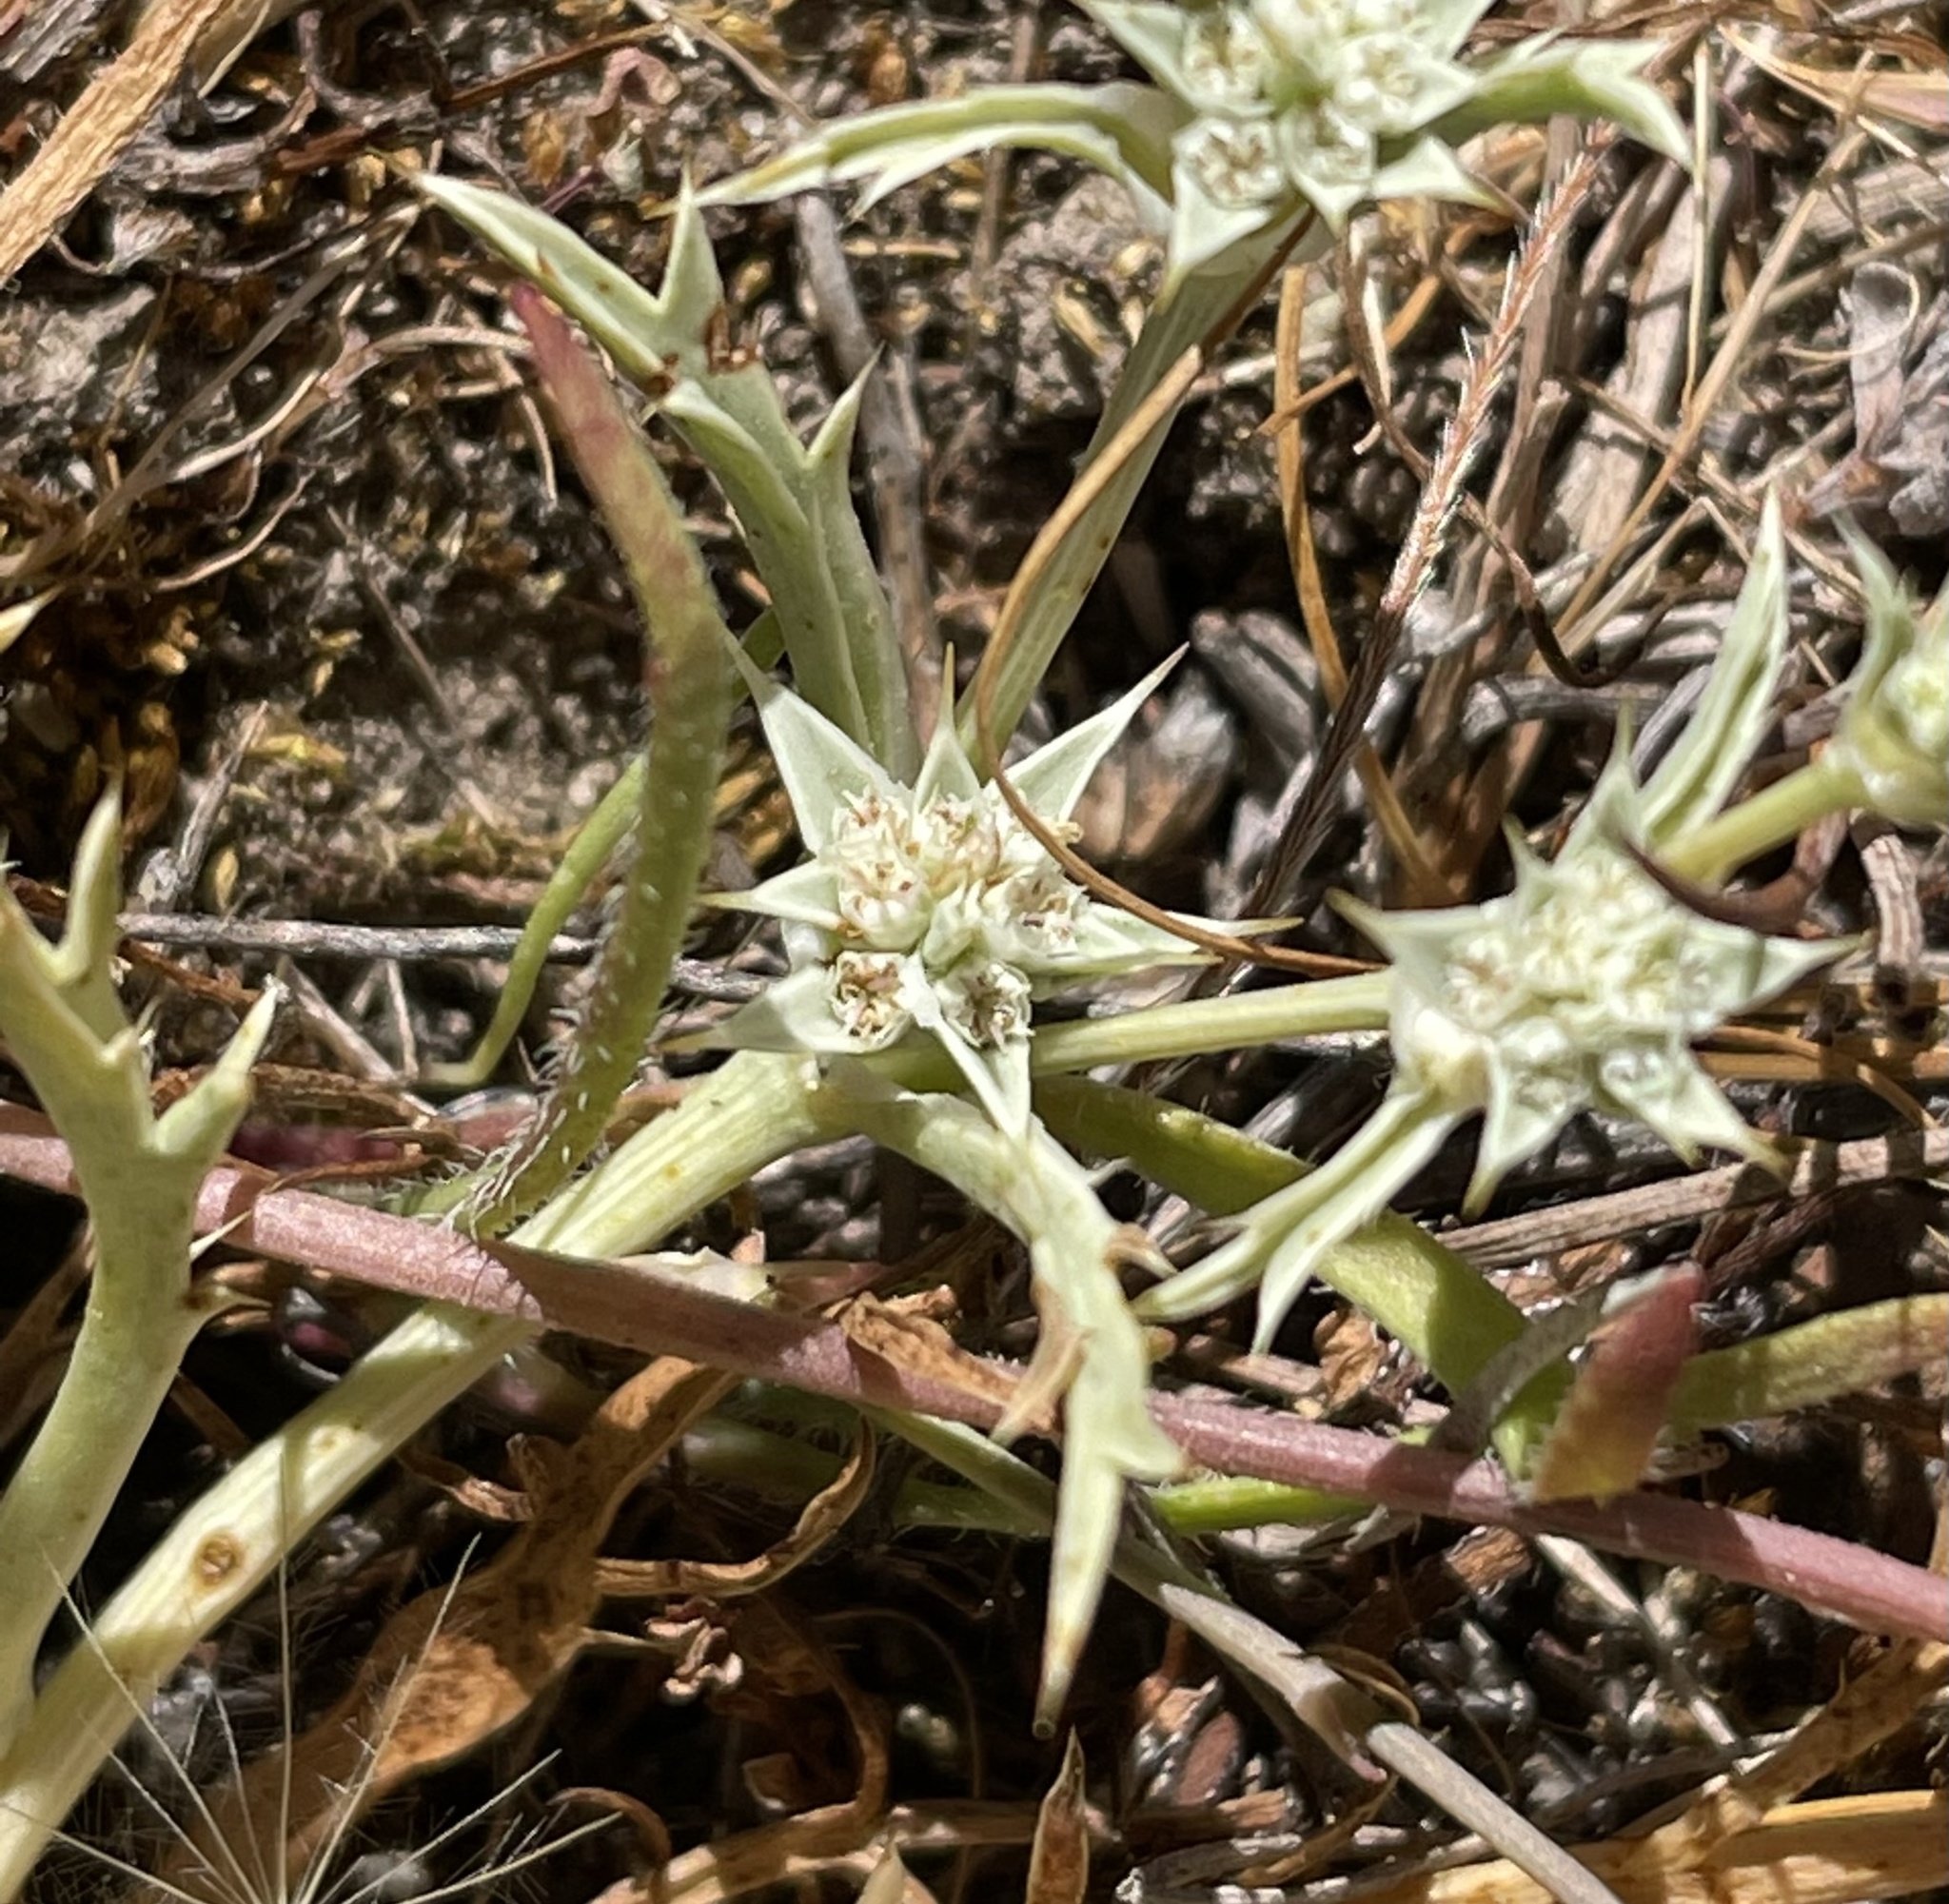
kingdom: Plantae
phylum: Tracheophyta
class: Magnoliopsida
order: Apiales
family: Apiaceae
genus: Eryngium
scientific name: Eryngium montereyense
